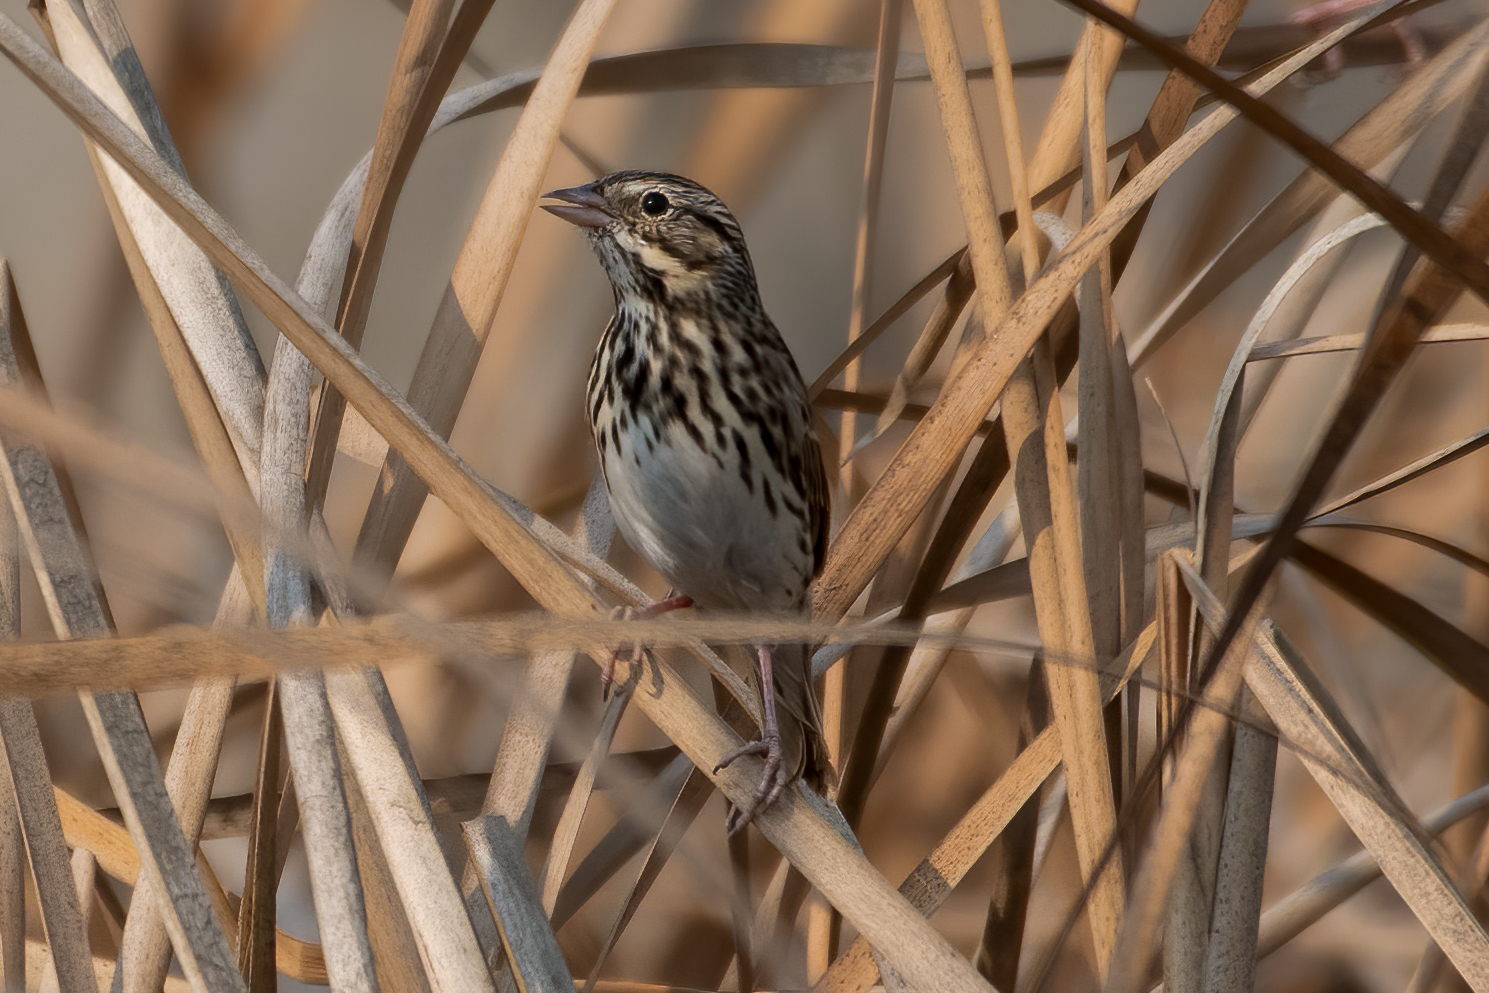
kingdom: Animalia
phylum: Chordata
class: Aves
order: Passeriformes
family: Passerellidae
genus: Passerculus
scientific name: Passerculus sandwichensis
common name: Savannah sparrow
